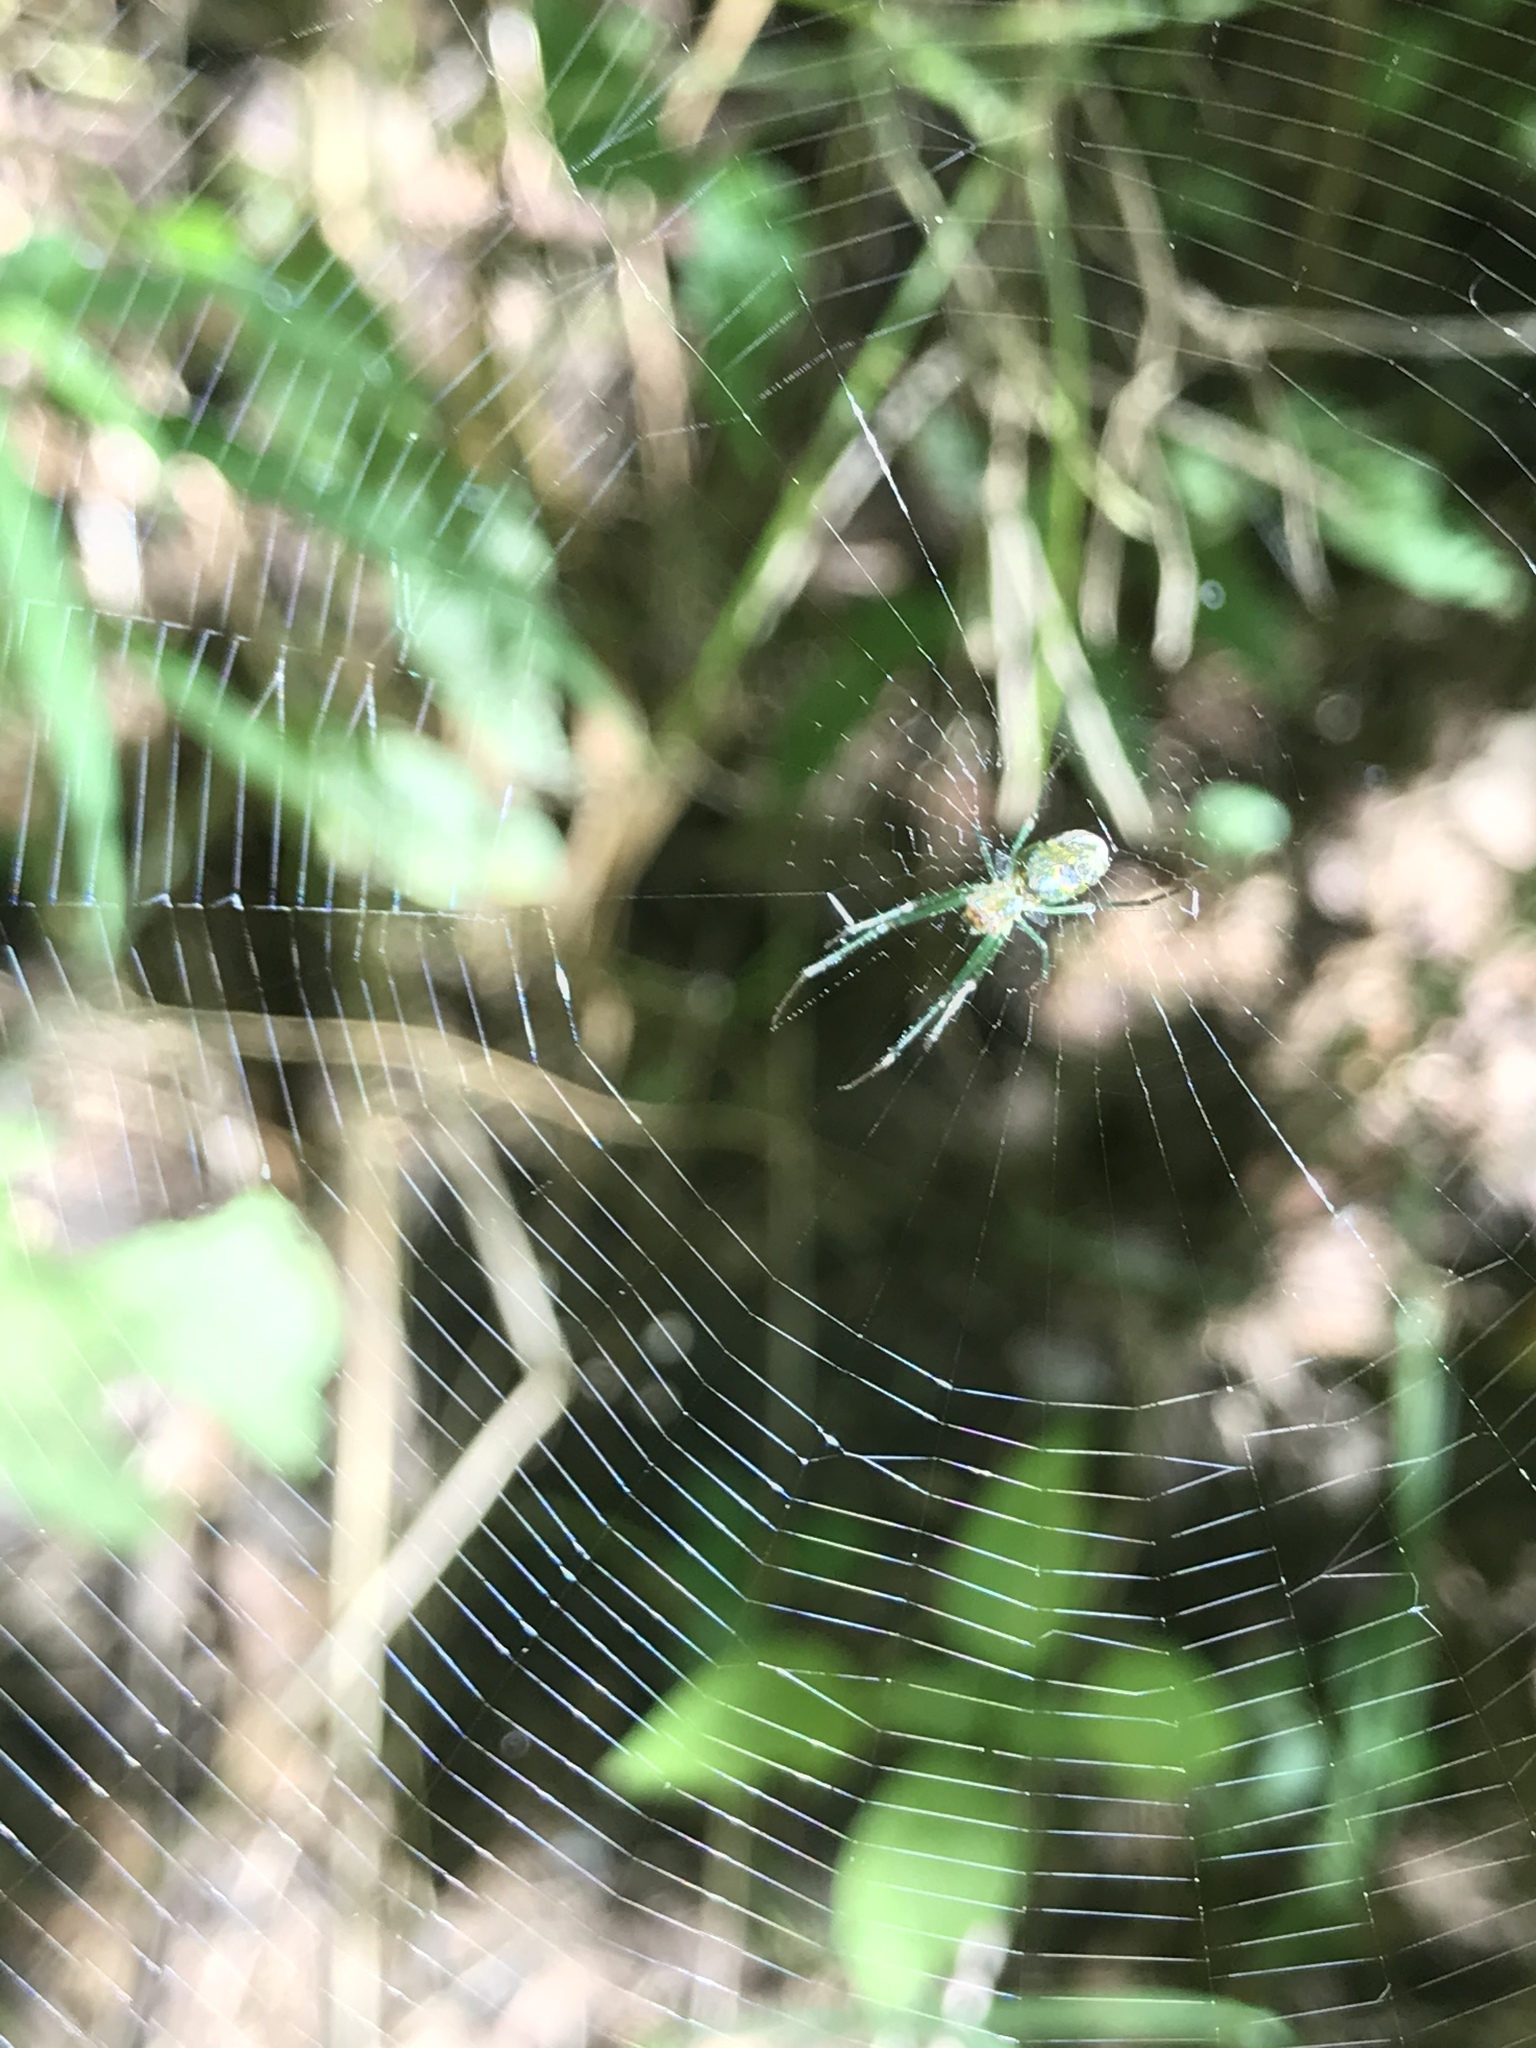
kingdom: Animalia
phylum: Arthropoda
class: Arachnida
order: Araneae
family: Tetragnathidae
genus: Leucauge
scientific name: Leucauge venusta
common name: Longjawed orb weavers
